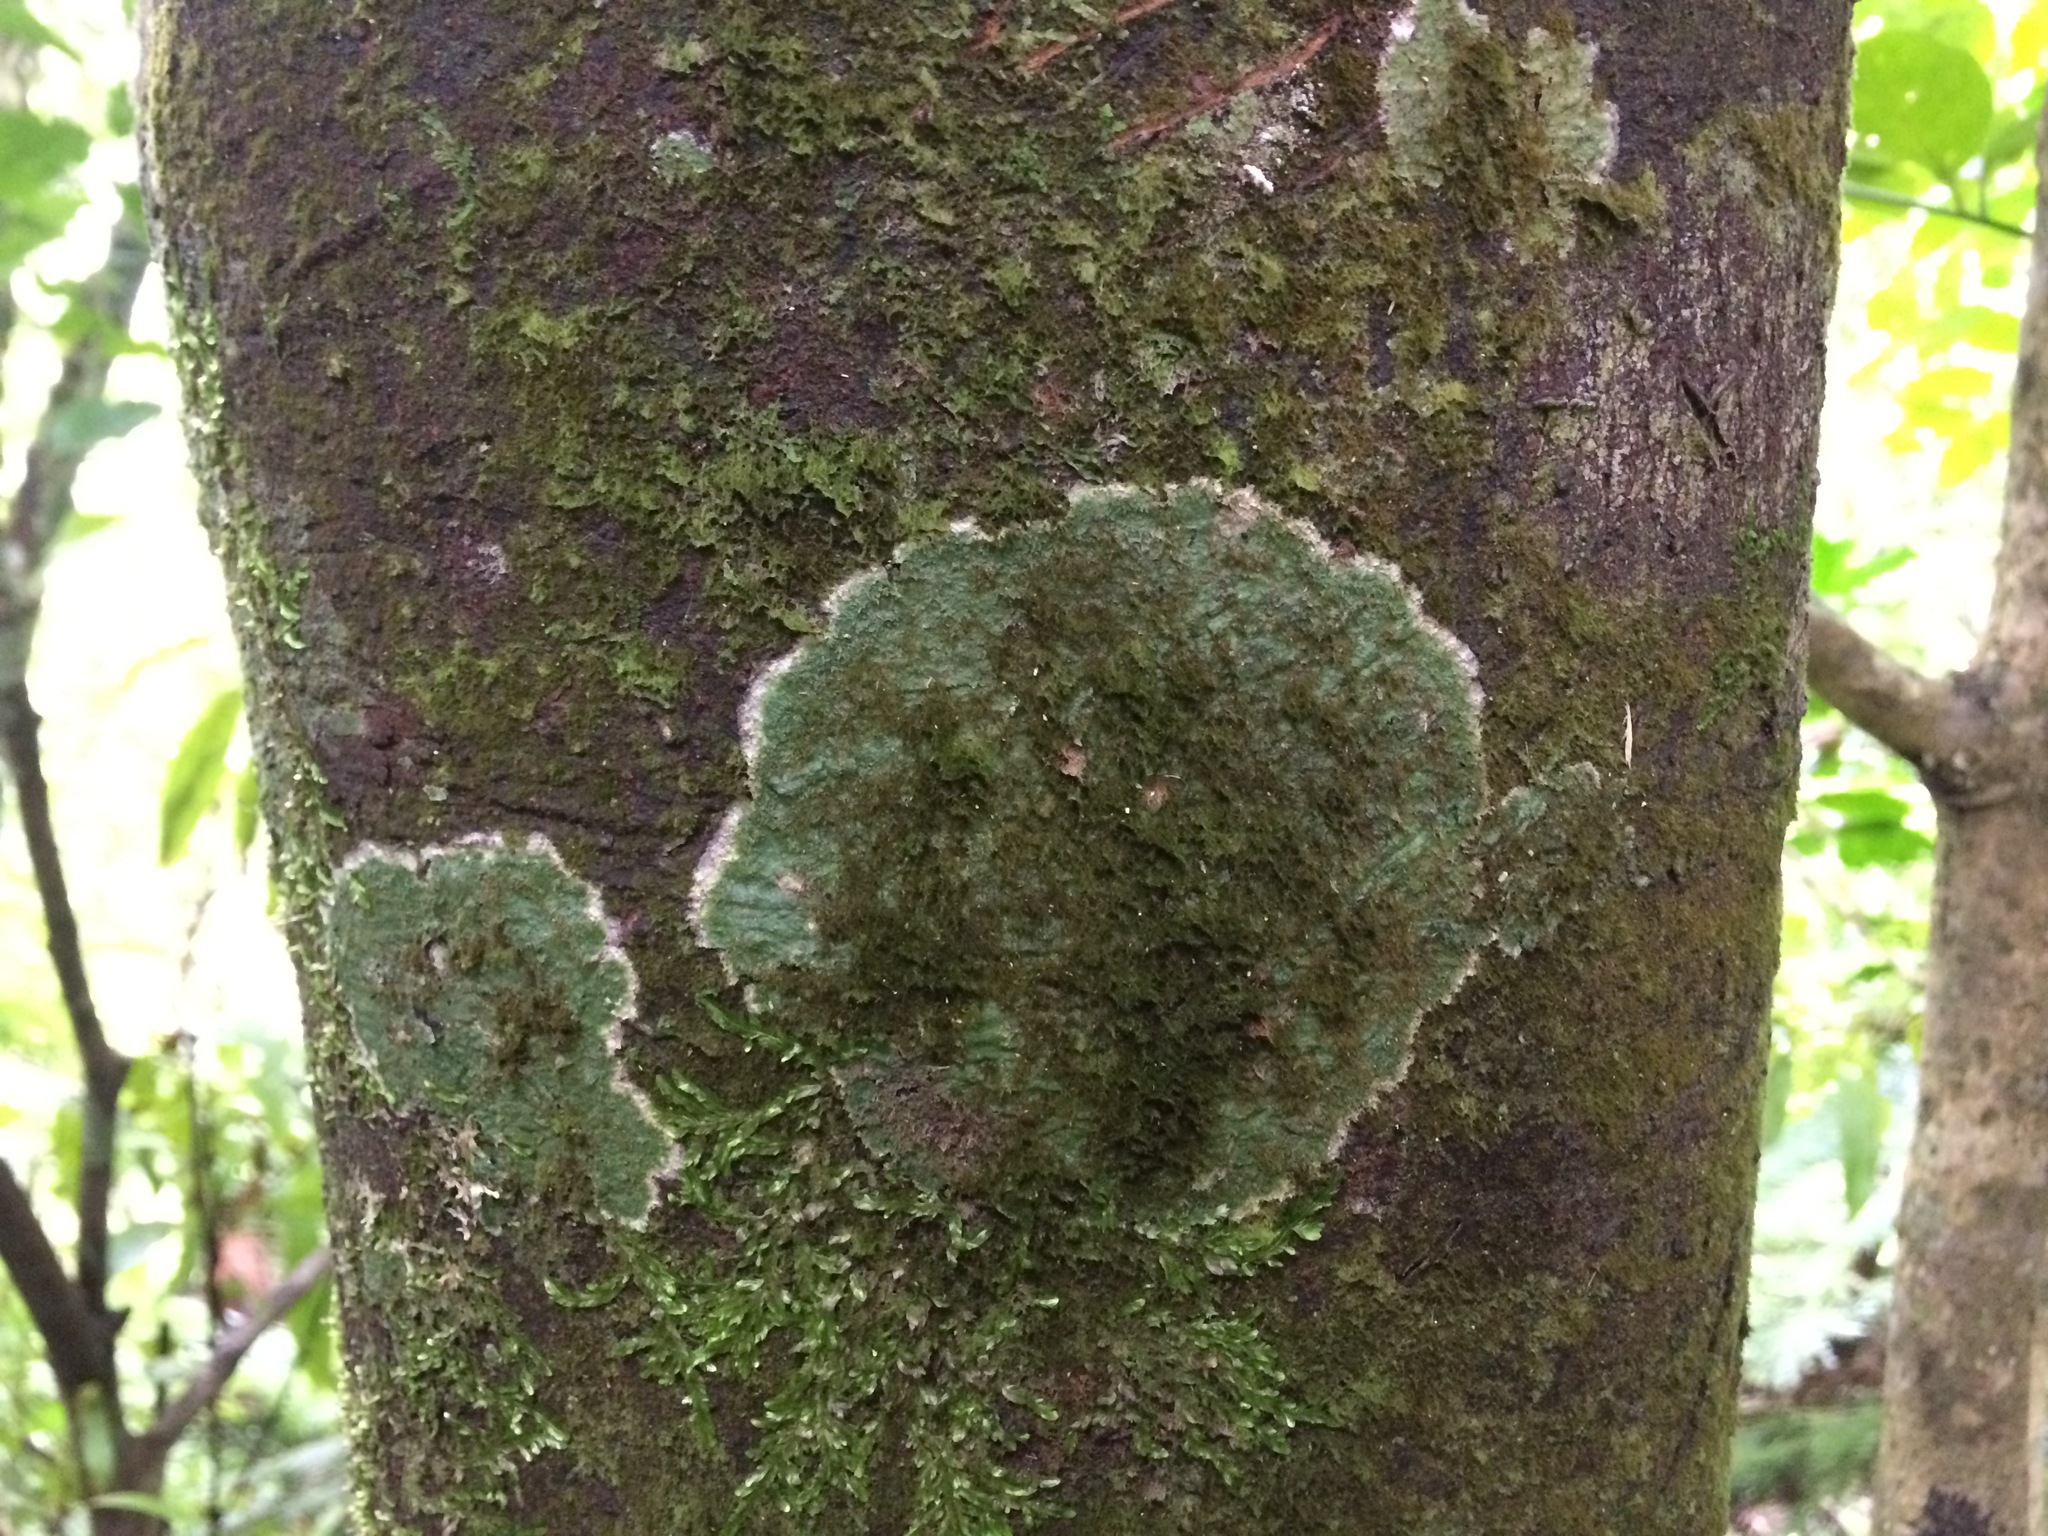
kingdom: Fungi
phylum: Ascomycota
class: Lecanoromycetes
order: Pertusariales
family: Pertusariaceae
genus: Porina
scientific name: Porina exocha
